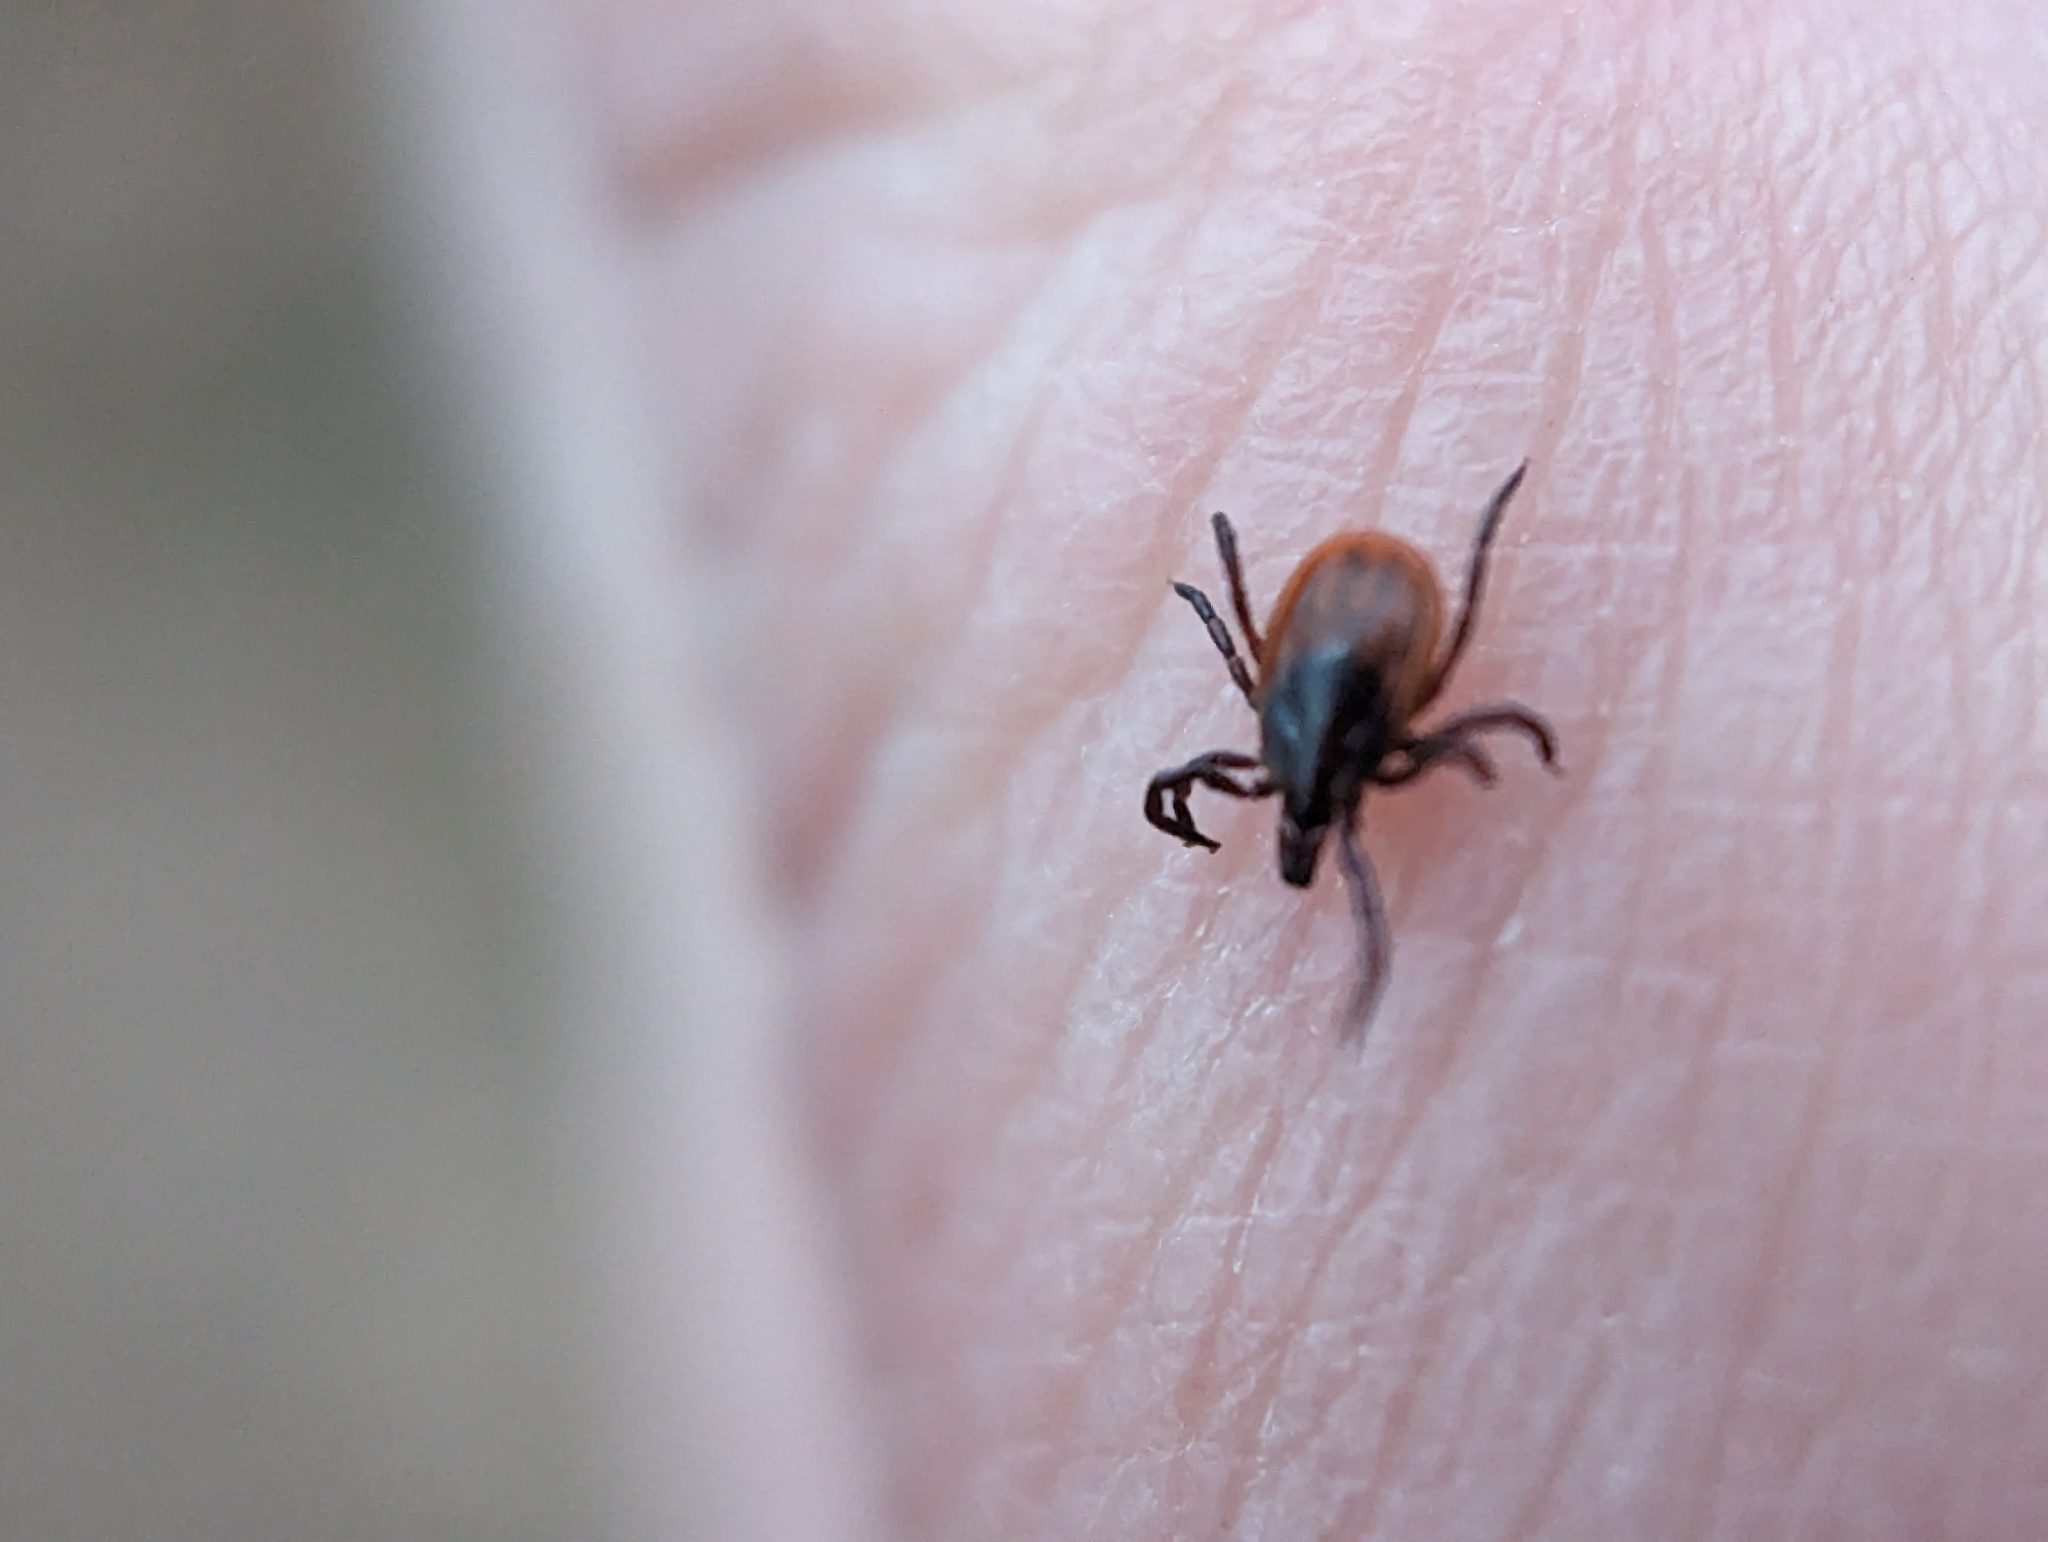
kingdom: Animalia
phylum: Arthropoda
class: Arachnida
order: Ixodida
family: Ixodidae
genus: Ixodes
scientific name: Ixodes scapularis
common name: Black legged tick
